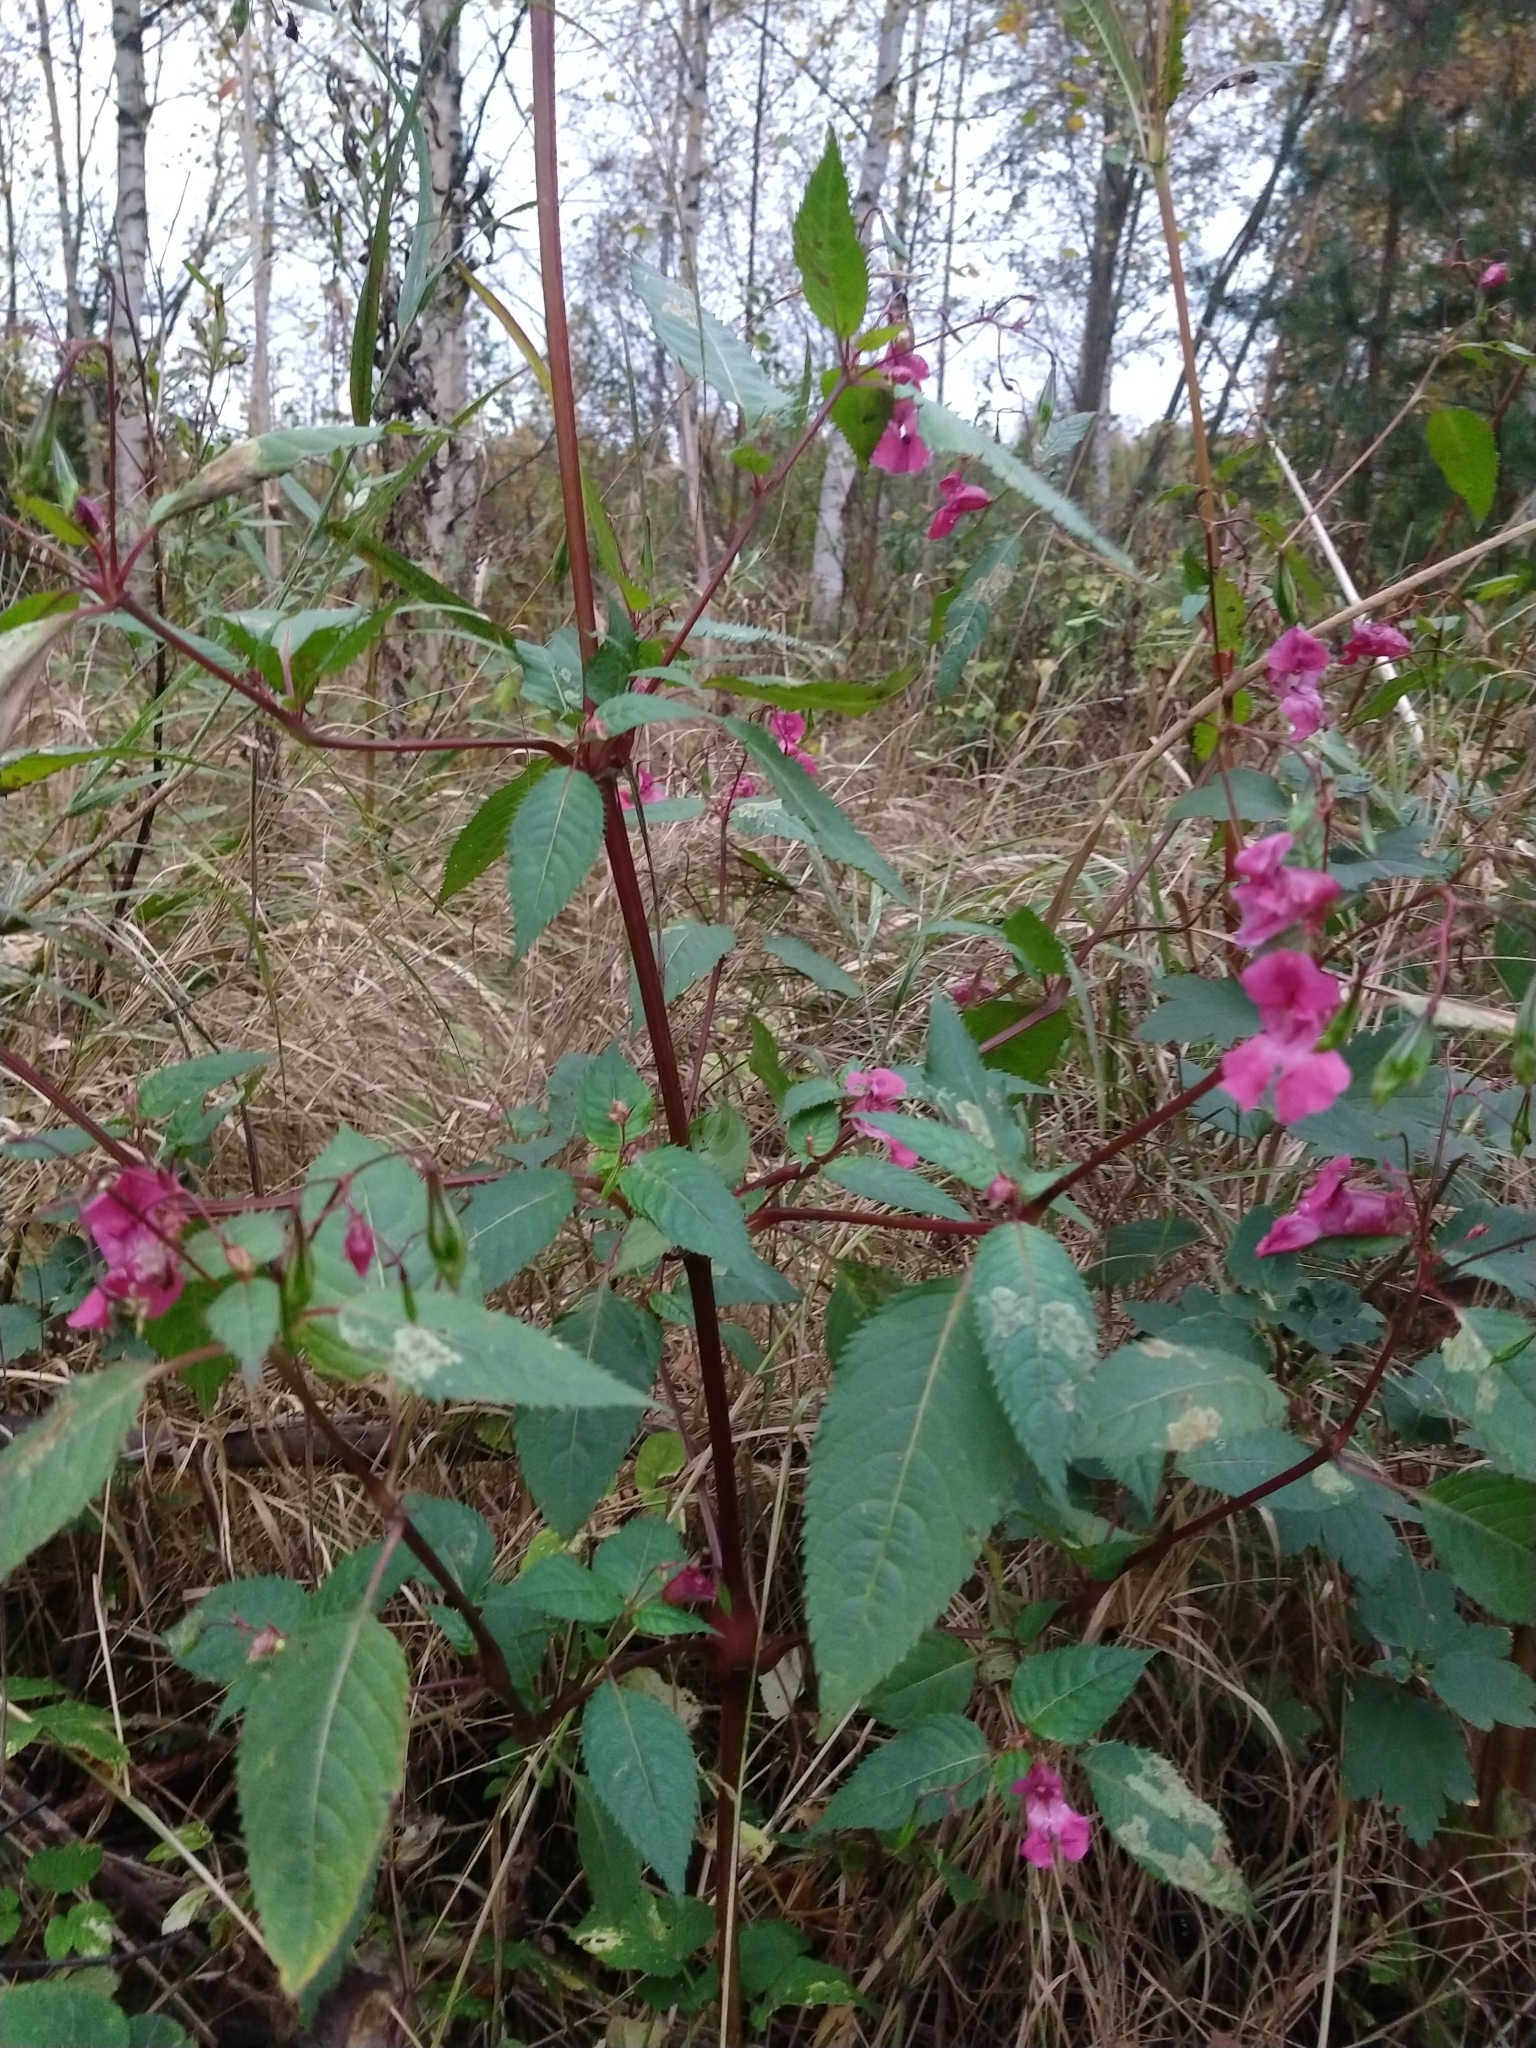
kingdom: Plantae
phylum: Tracheophyta
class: Magnoliopsida
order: Ericales
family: Balsaminaceae
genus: Impatiens
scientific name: Impatiens glandulifera
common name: Himalayan balsam
